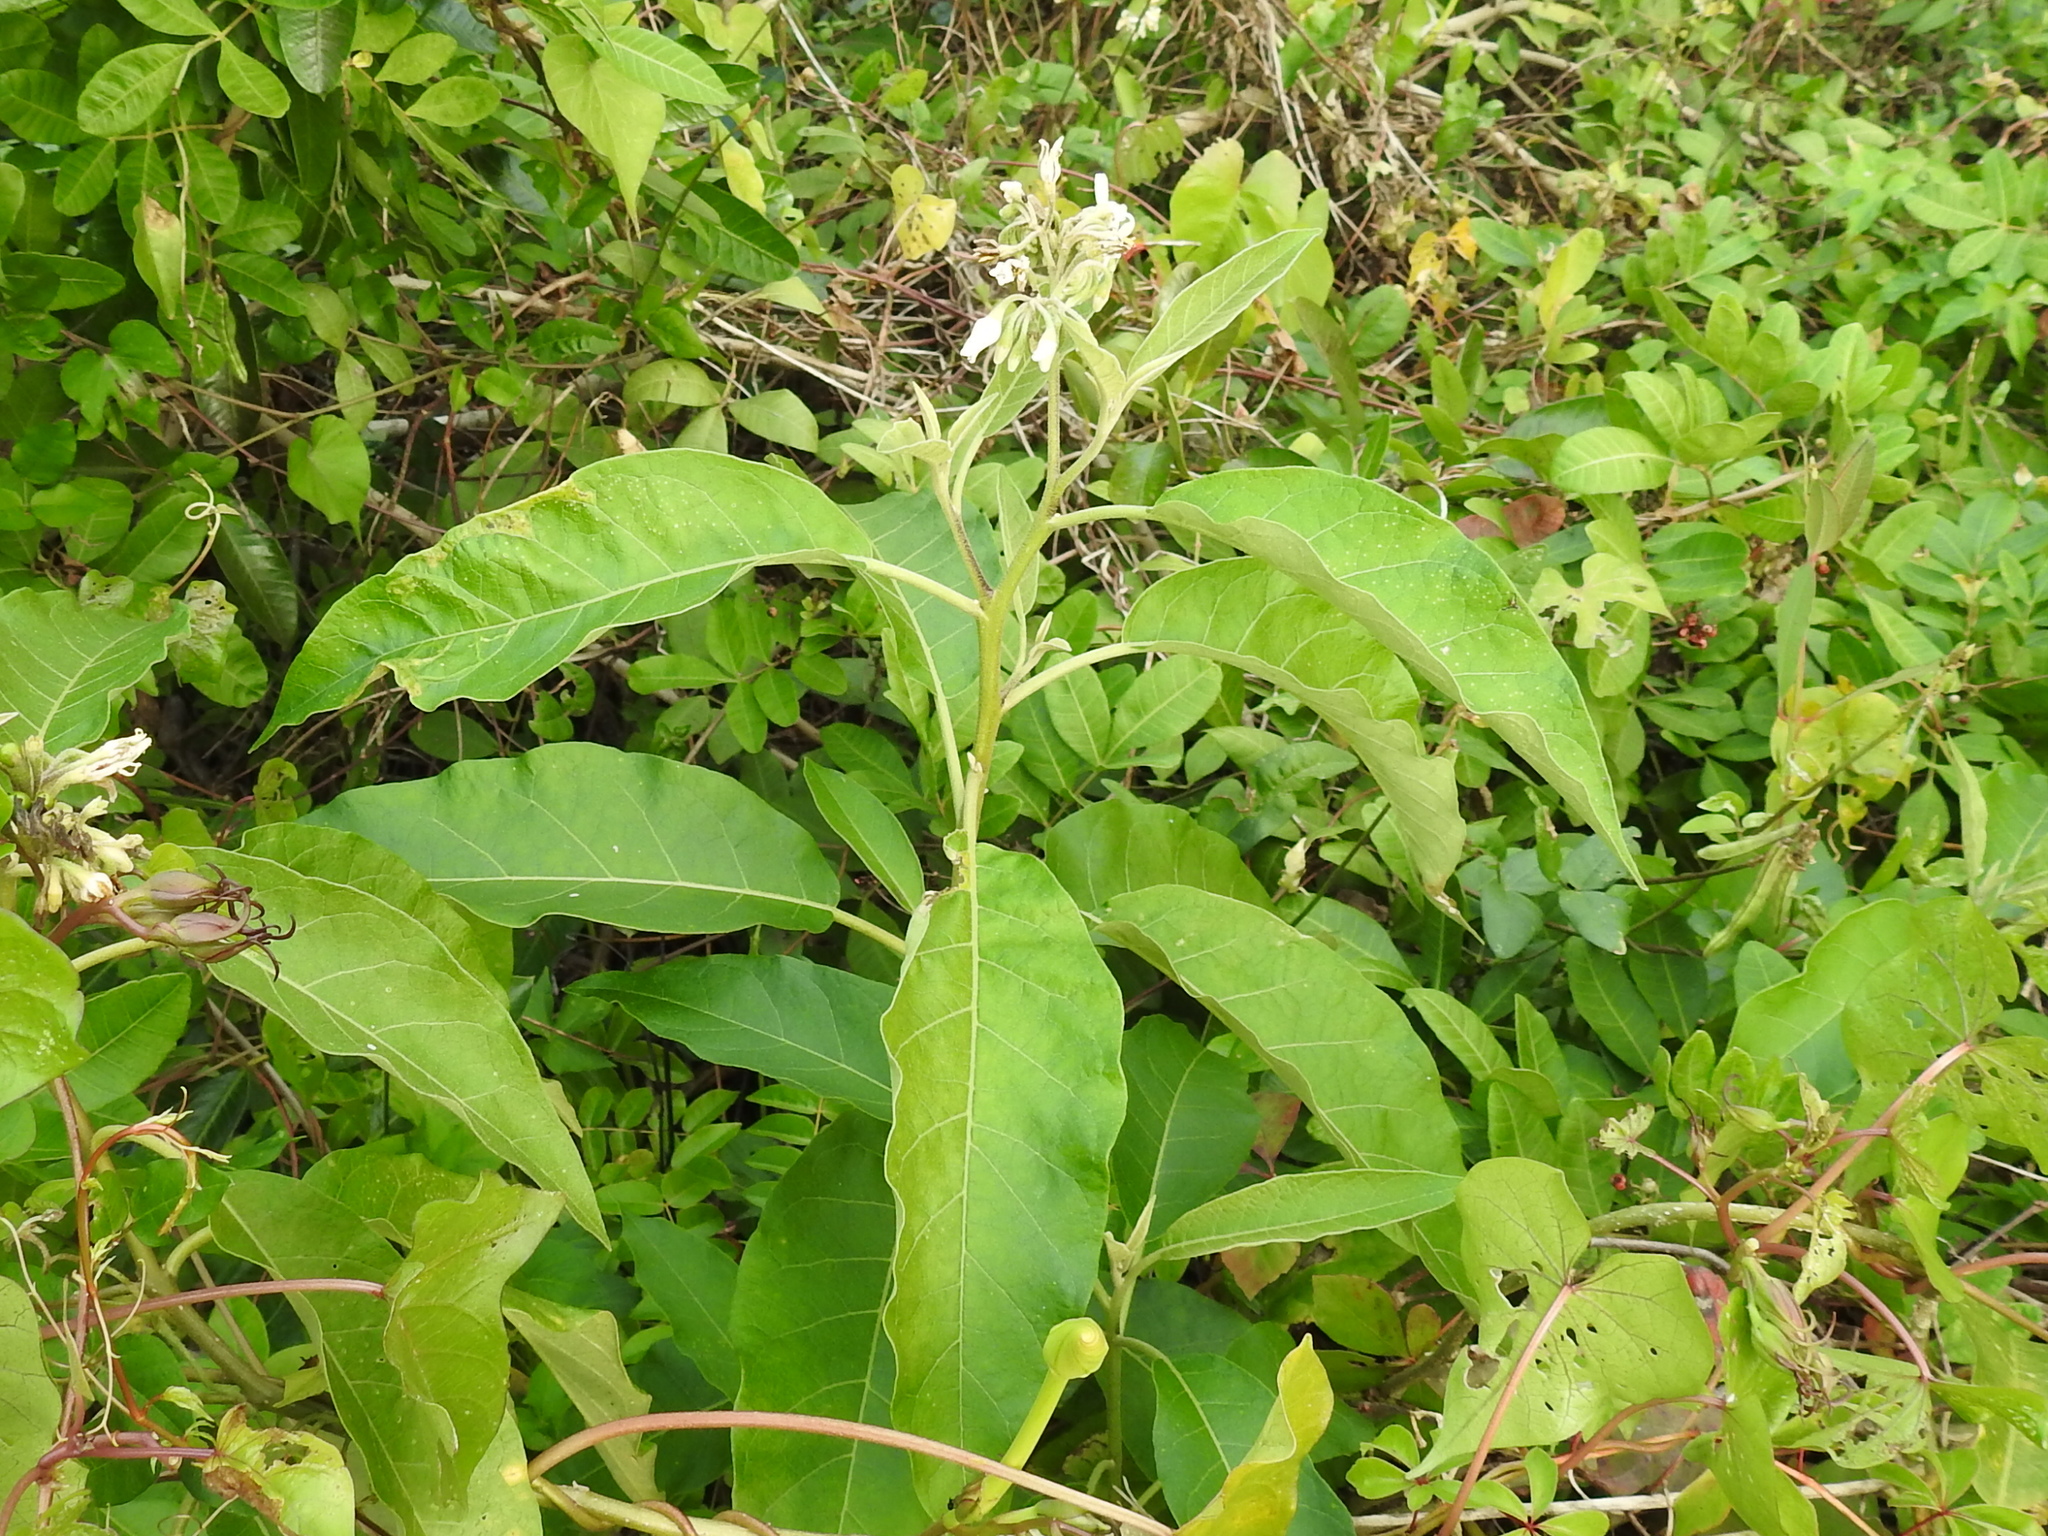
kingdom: Plantae
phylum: Tracheophyta
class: Magnoliopsida
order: Solanales
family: Solanaceae
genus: Solanum
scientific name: Solanum donianum
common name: Mullein nightshade
